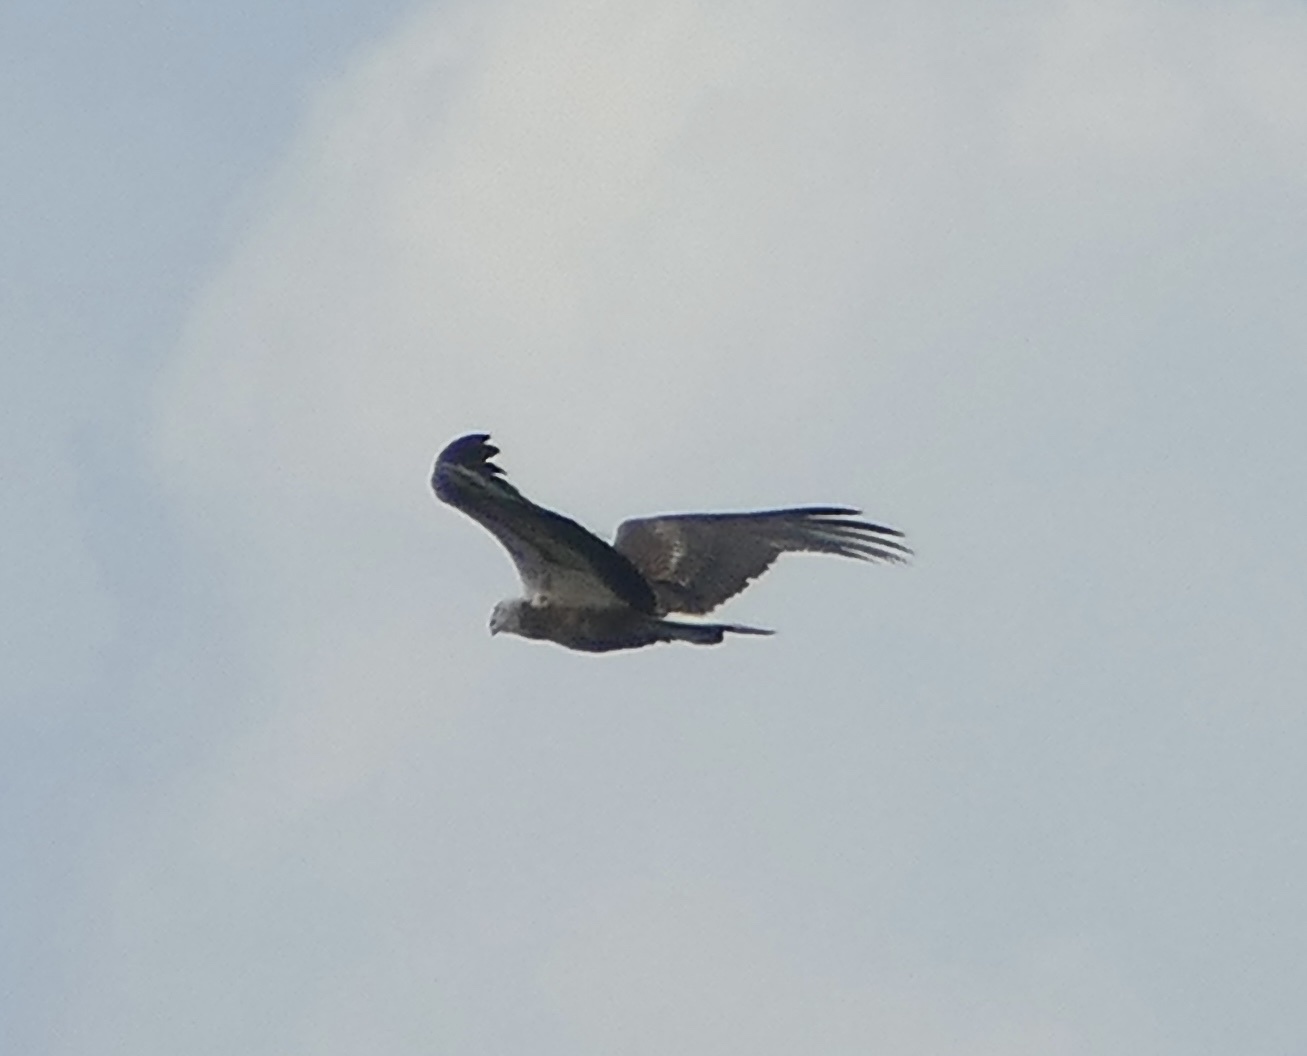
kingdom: Animalia
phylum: Chordata
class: Aves
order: Accipitriformes
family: Accipitridae
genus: Haliaeetus
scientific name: Haliaeetus leucogaster
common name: White-bellied sea eagle
